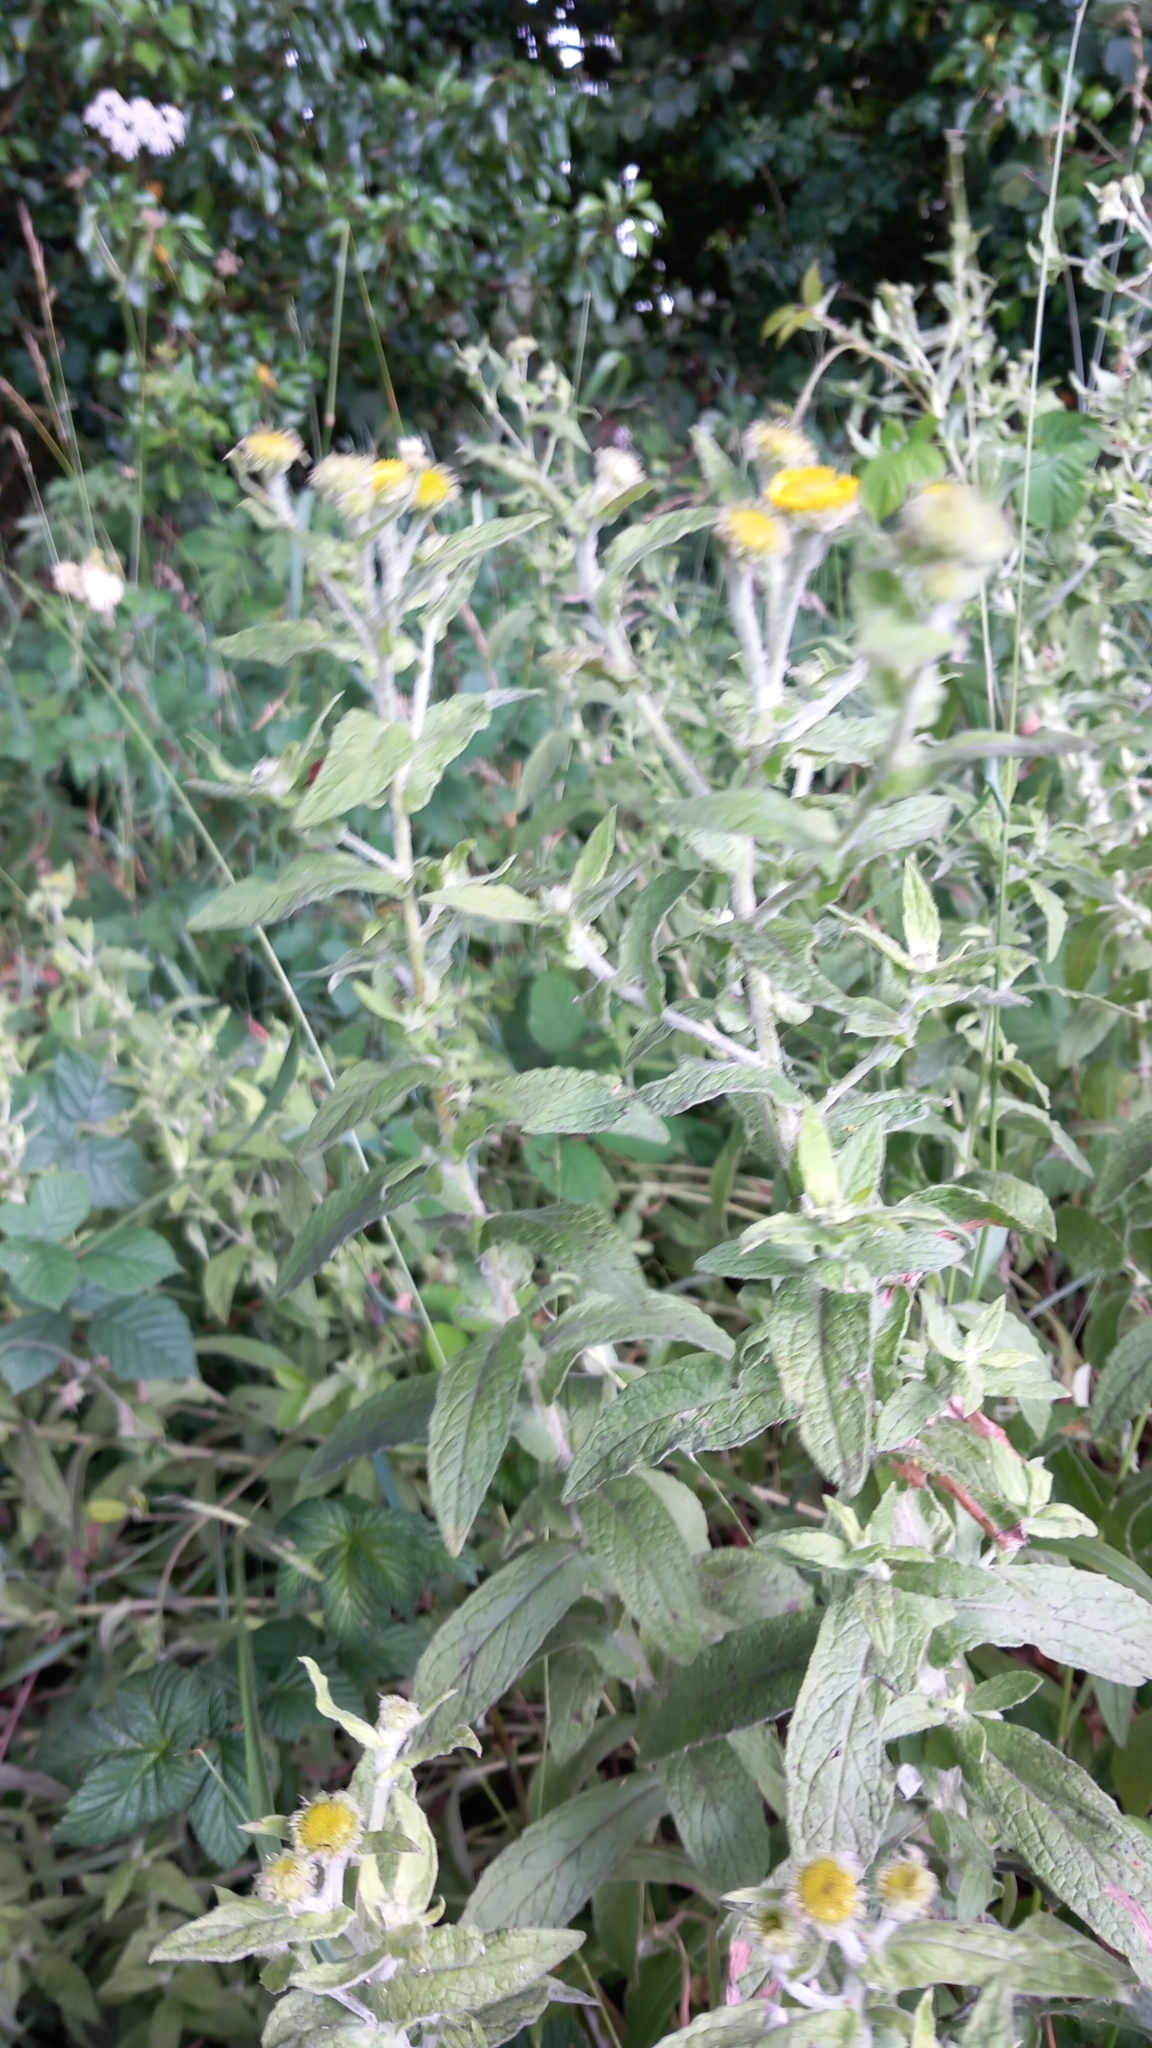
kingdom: Plantae
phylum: Tracheophyta
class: Magnoliopsida
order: Asterales
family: Asteraceae
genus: Pulicaria
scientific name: Pulicaria dysenterica
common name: Common fleabane
